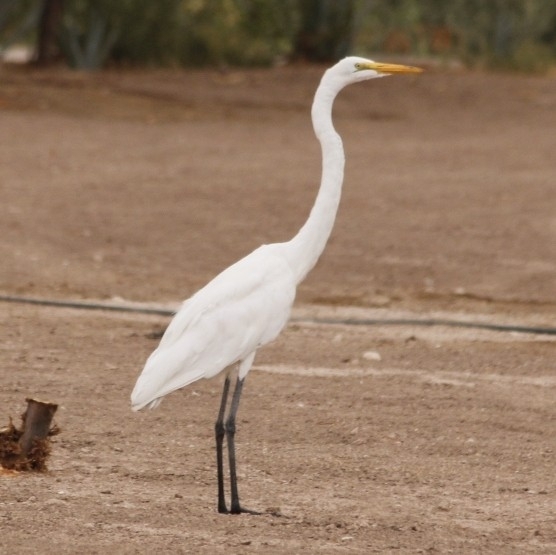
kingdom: Animalia
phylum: Chordata
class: Aves
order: Pelecaniformes
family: Ardeidae
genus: Ardea
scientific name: Ardea alba
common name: Great egret
